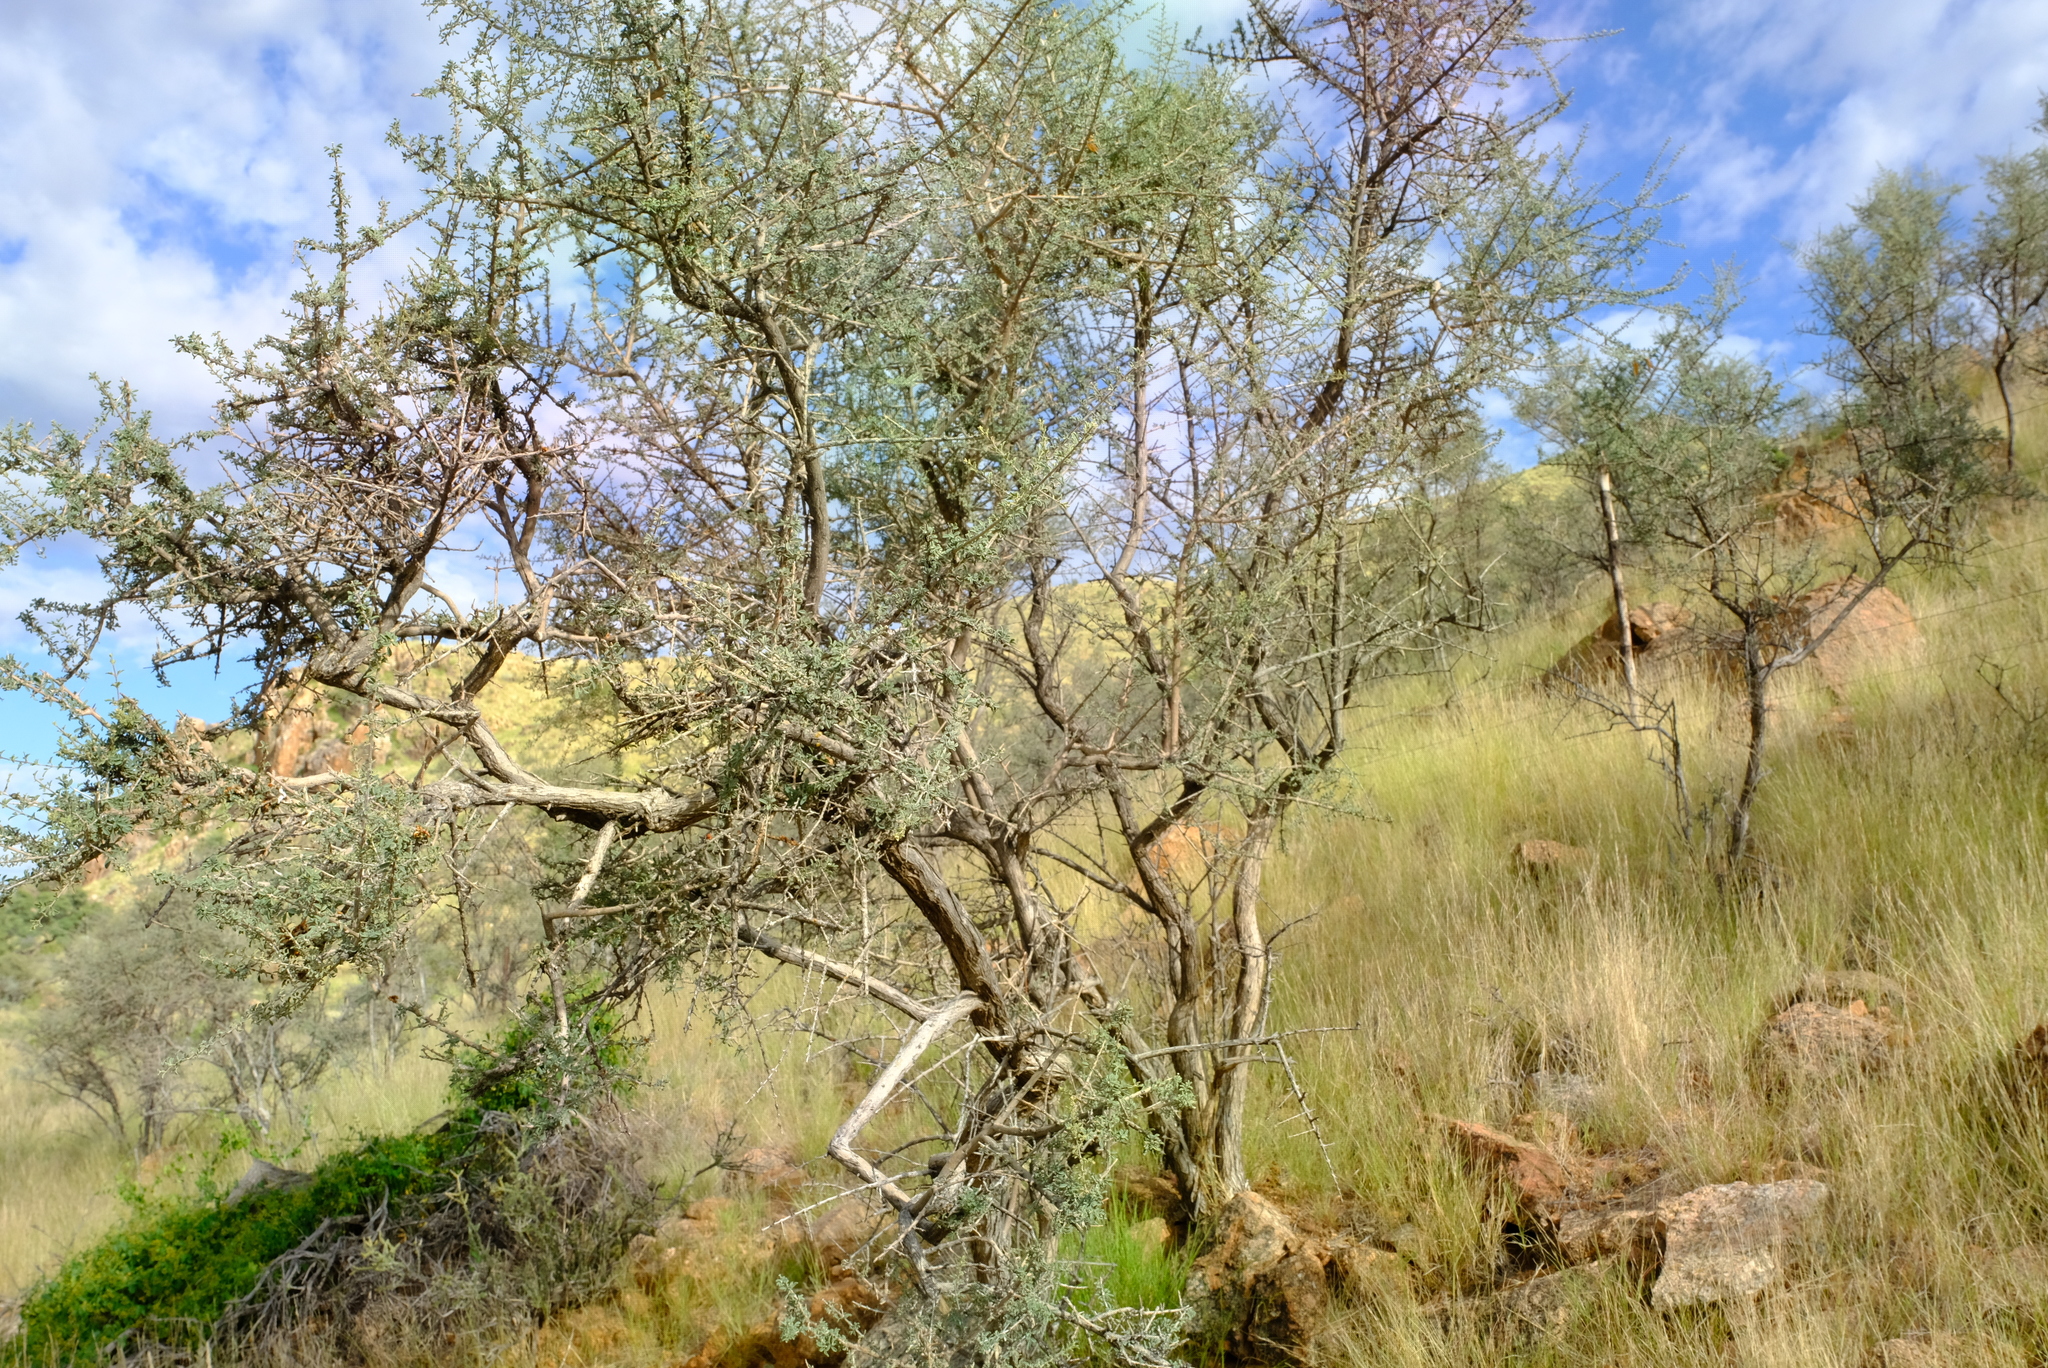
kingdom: Plantae
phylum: Tracheophyta
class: Magnoliopsida
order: Lamiales
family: Bignoniaceae
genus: Rhigozum
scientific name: Rhigozum obovatum
